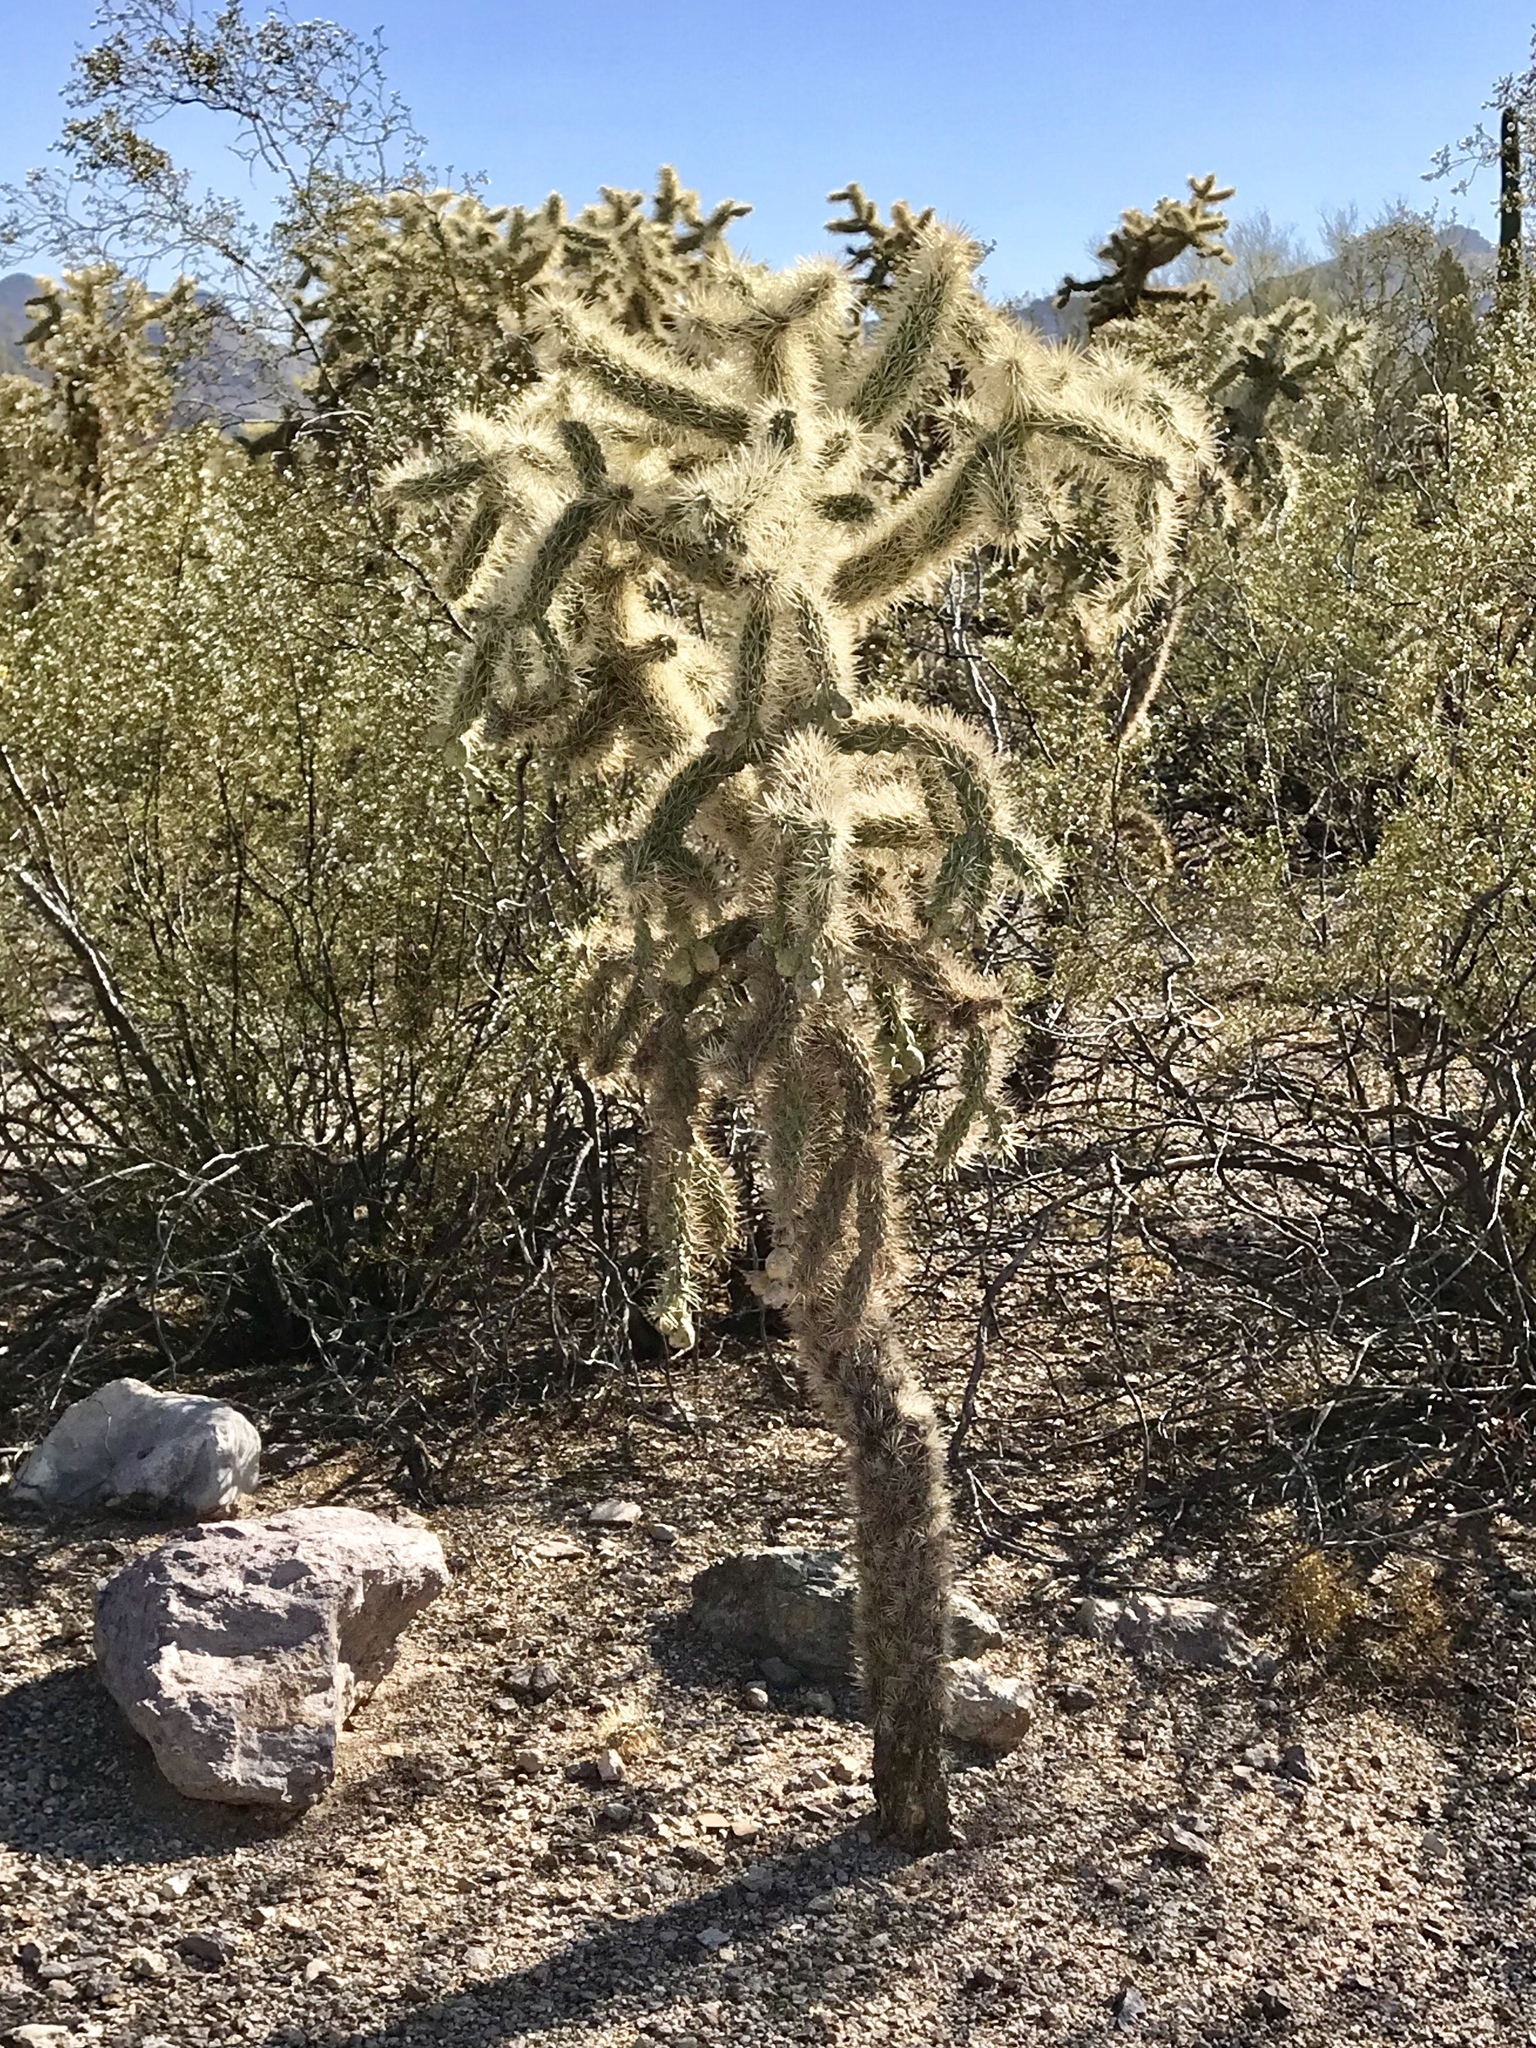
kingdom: Plantae
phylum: Tracheophyta
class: Magnoliopsida
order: Caryophyllales
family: Cactaceae
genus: Cylindropuntia
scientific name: Cylindropuntia fulgida
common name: Jumping cholla
